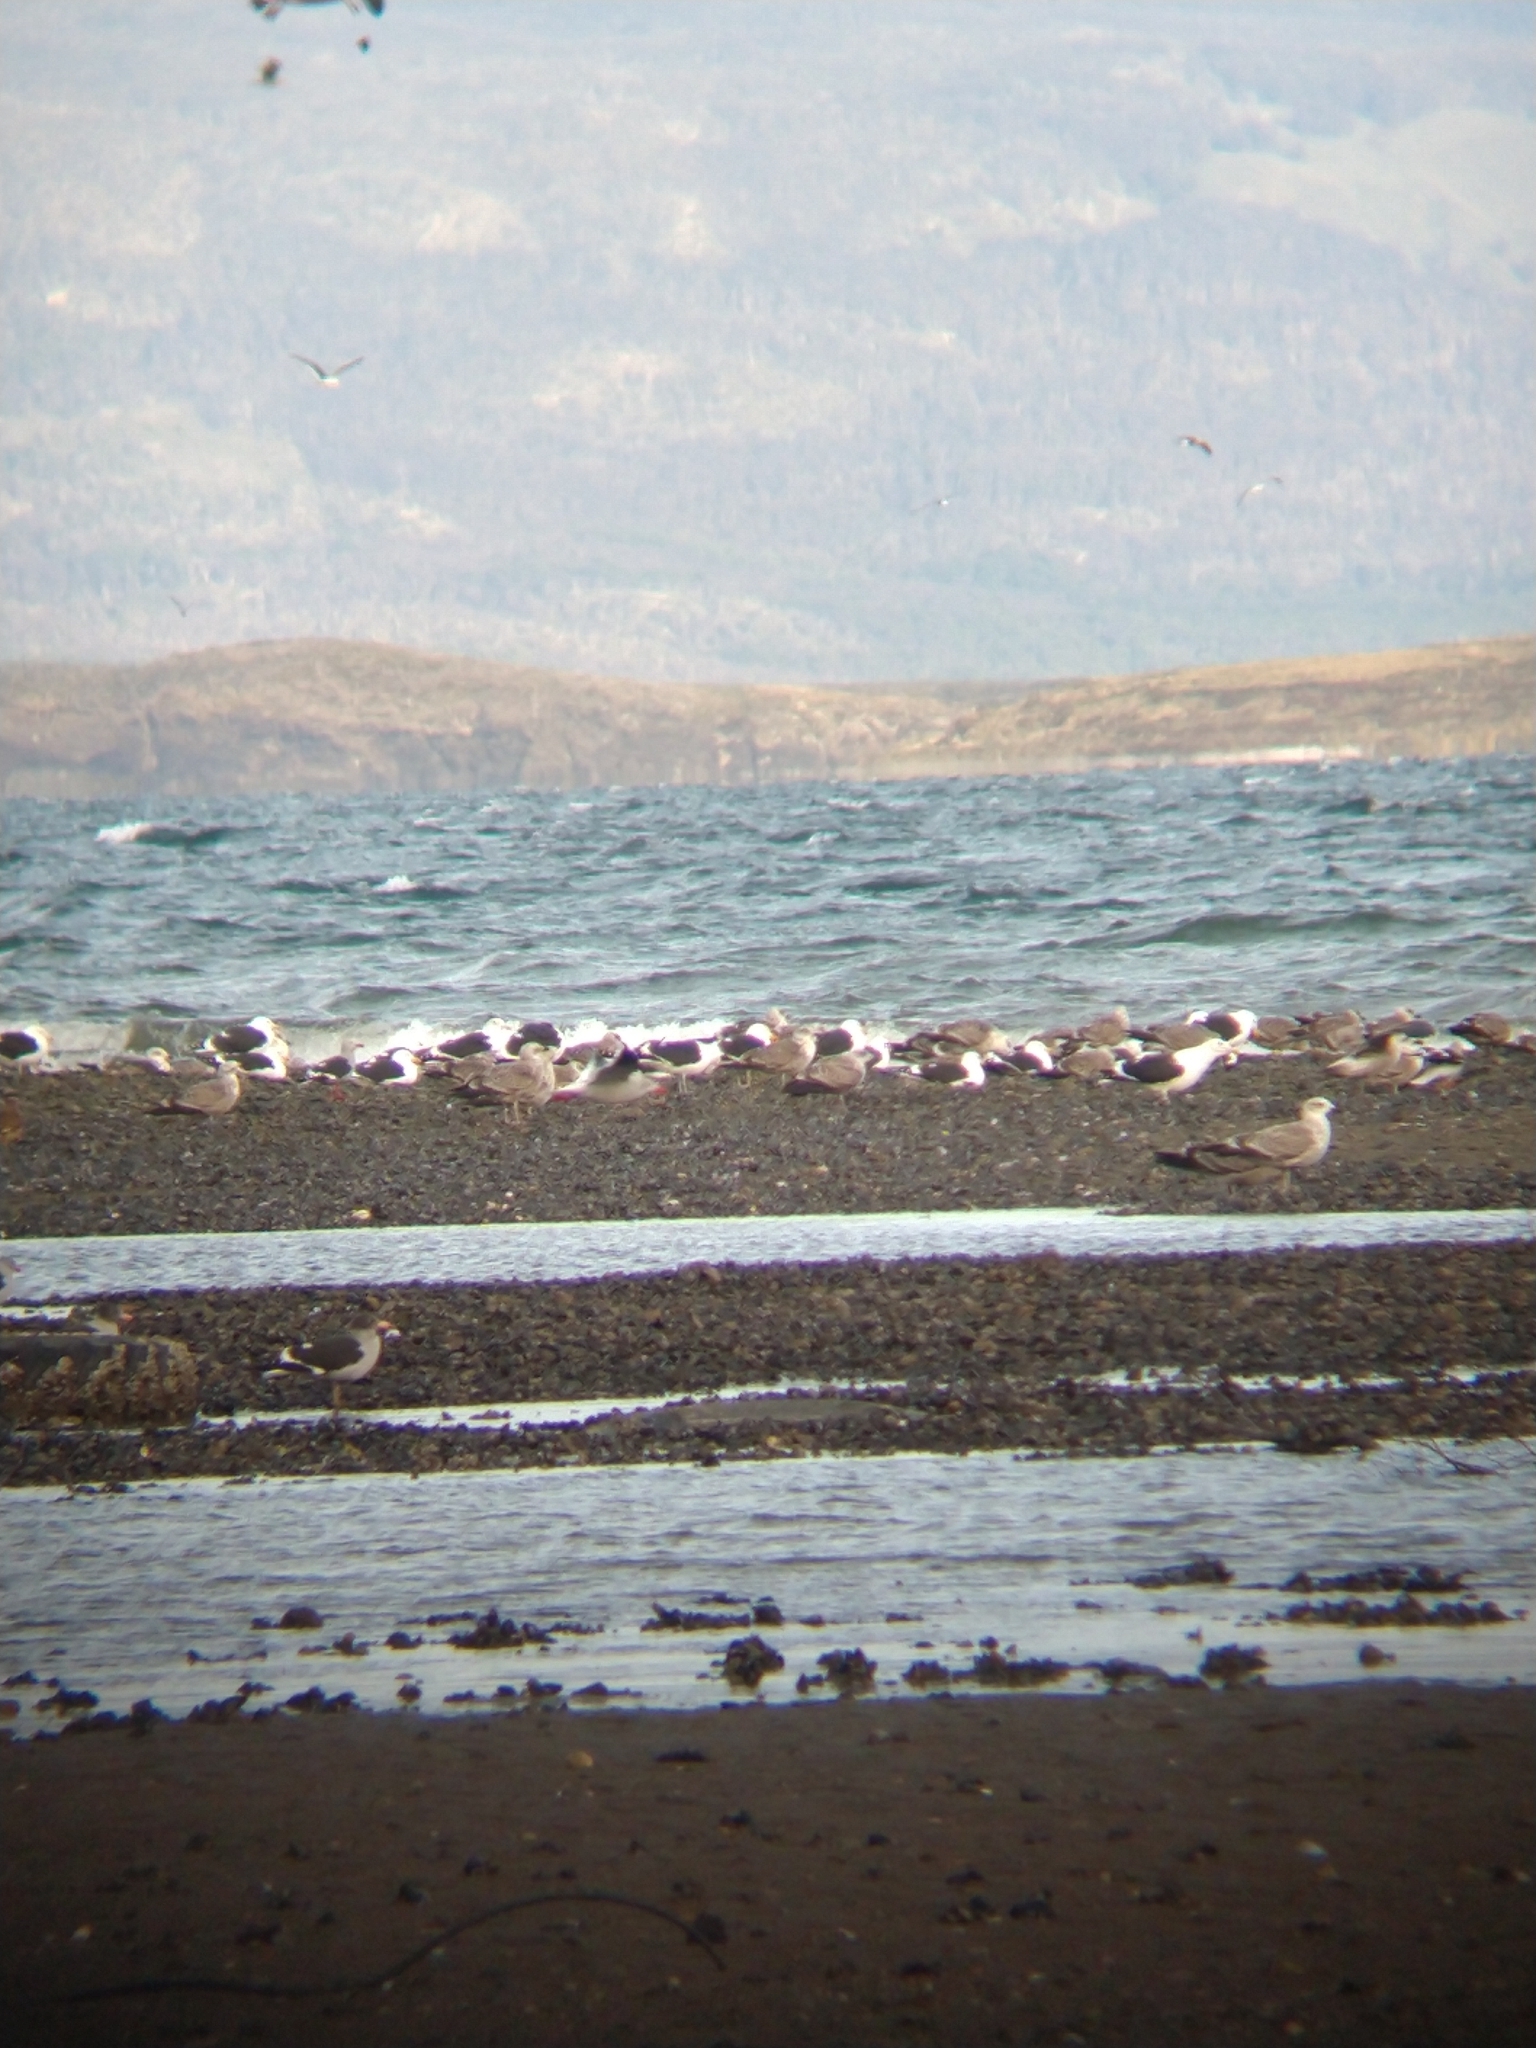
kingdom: Animalia
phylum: Chordata
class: Aves
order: Charadriiformes
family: Laridae
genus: Larus
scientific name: Larus dominicanus
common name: Kelp gull
